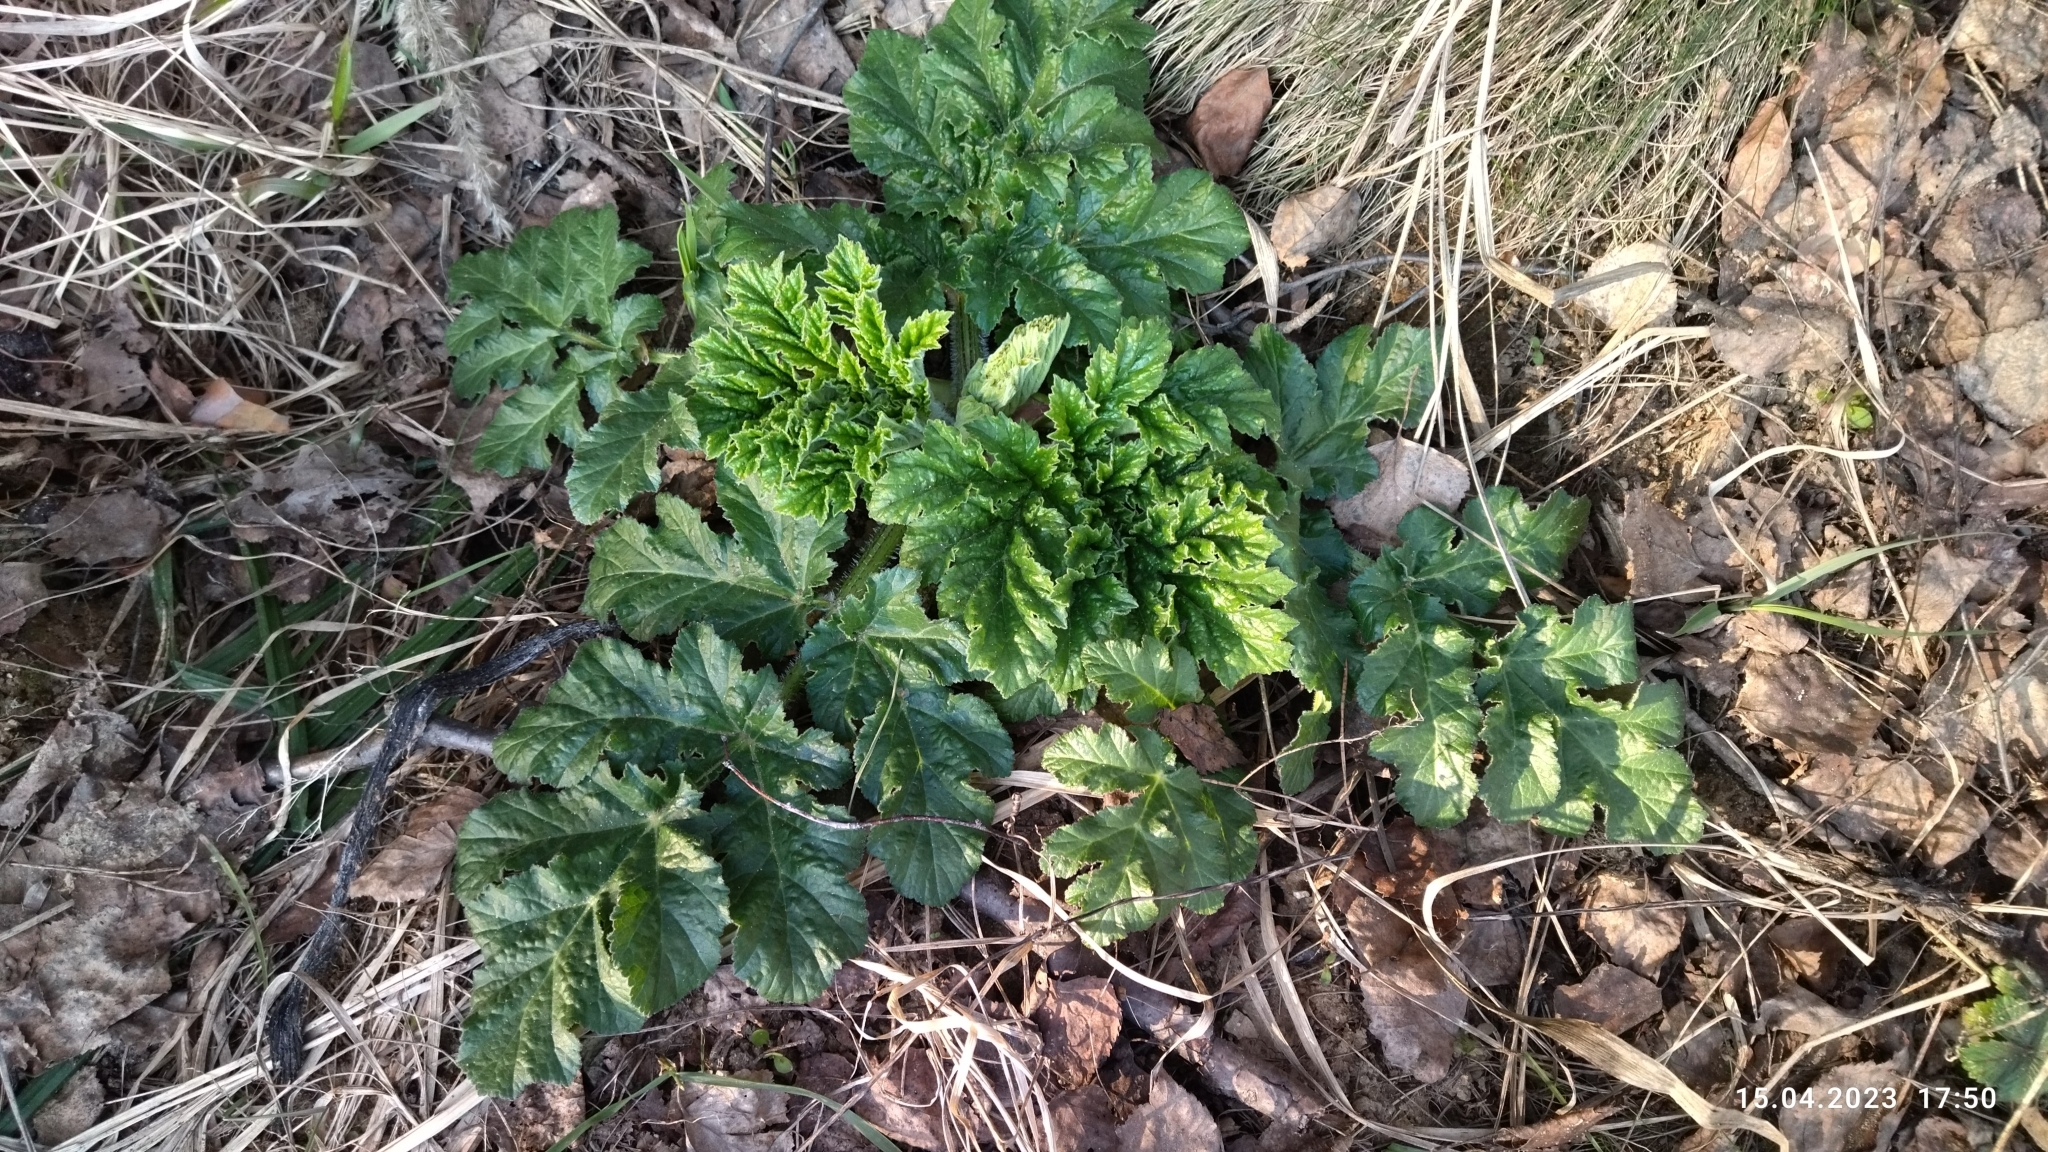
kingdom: Plantae
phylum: Tracheophyta
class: Magnoliopsida
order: Apiales
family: Apiaceae
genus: Heracleum
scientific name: Heracleum sosnowskyi
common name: Sosnowsky's hogweed
